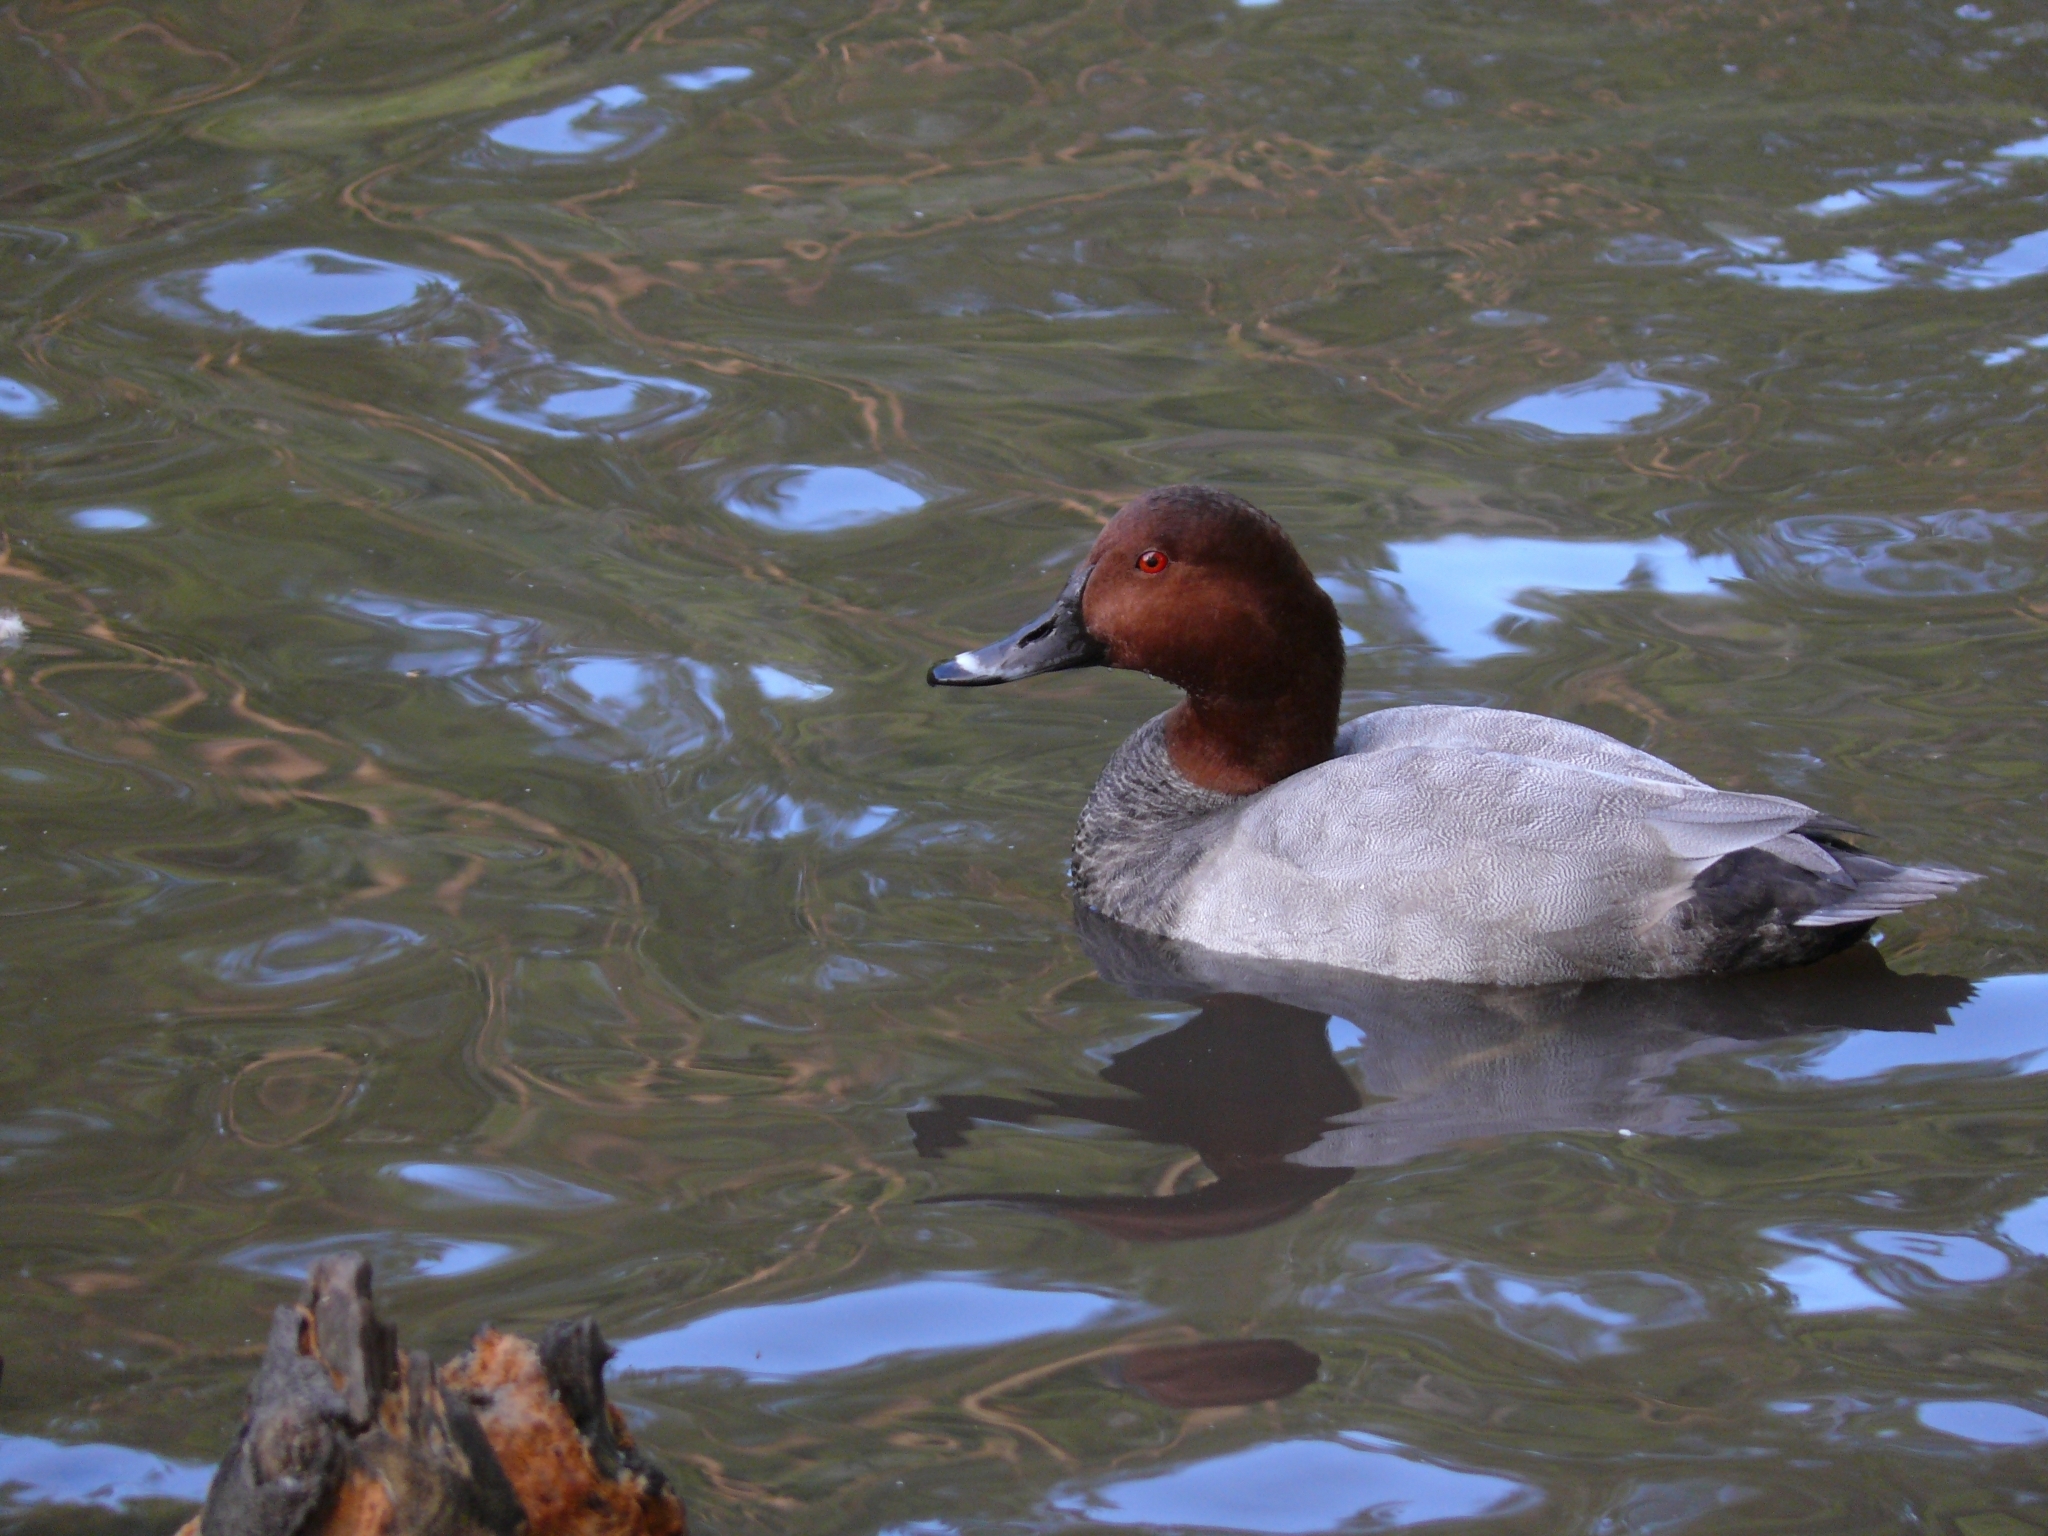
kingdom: Animalia
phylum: Chordata
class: Aves
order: Anseriformes
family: Anatidae
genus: Aythya
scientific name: Aythya ferina
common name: Common pochard
